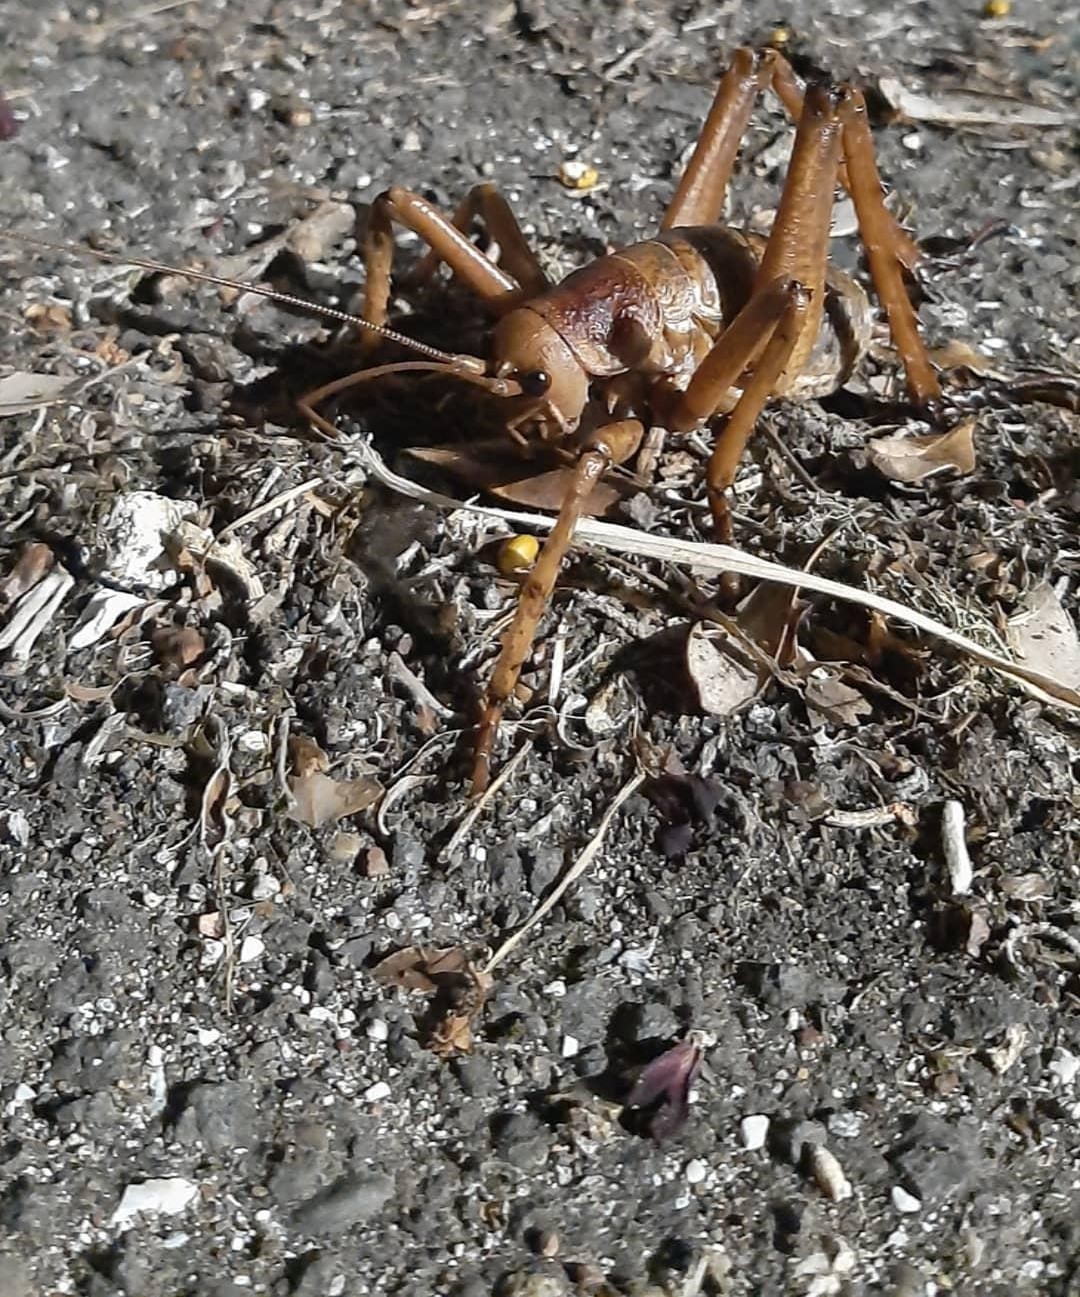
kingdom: Animalia
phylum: Arthropoda
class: Insecta
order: Orthoptera
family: Anostostomatidae
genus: Deinacrida
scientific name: Deinacrida heteracantha
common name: Wetapunga
